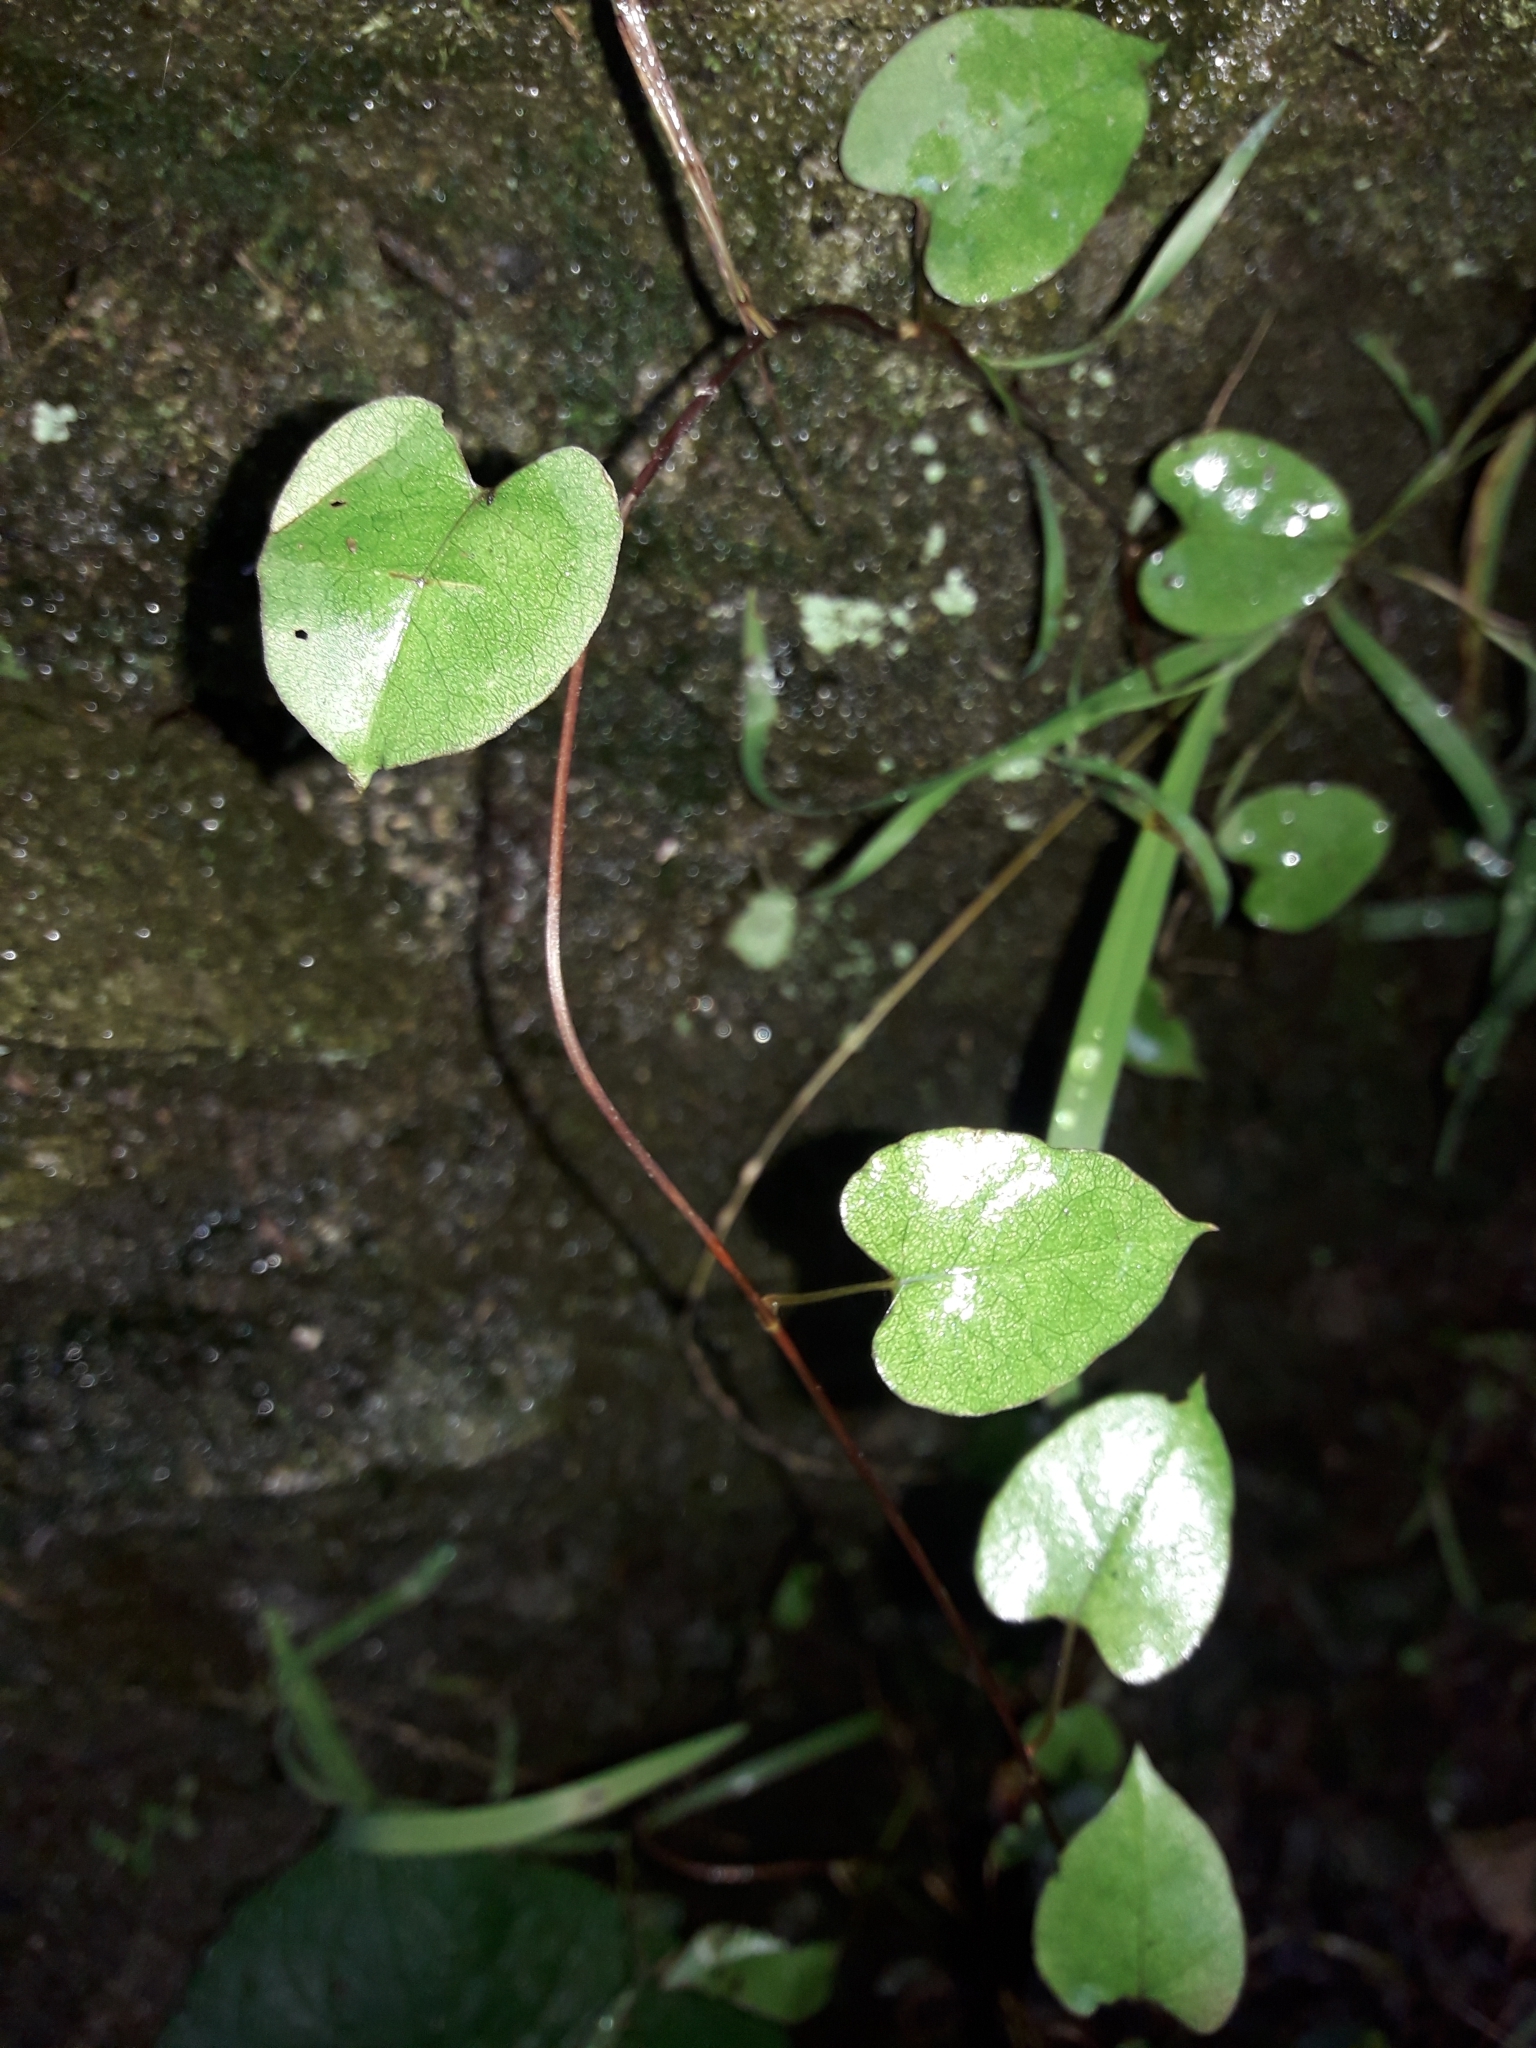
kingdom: Plantae
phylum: Tracheophyta
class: Magnoliopsida
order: Caryophyllales
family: Polygonaceae
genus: Muehlenbeckia
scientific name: Muehlenbeckia australis
